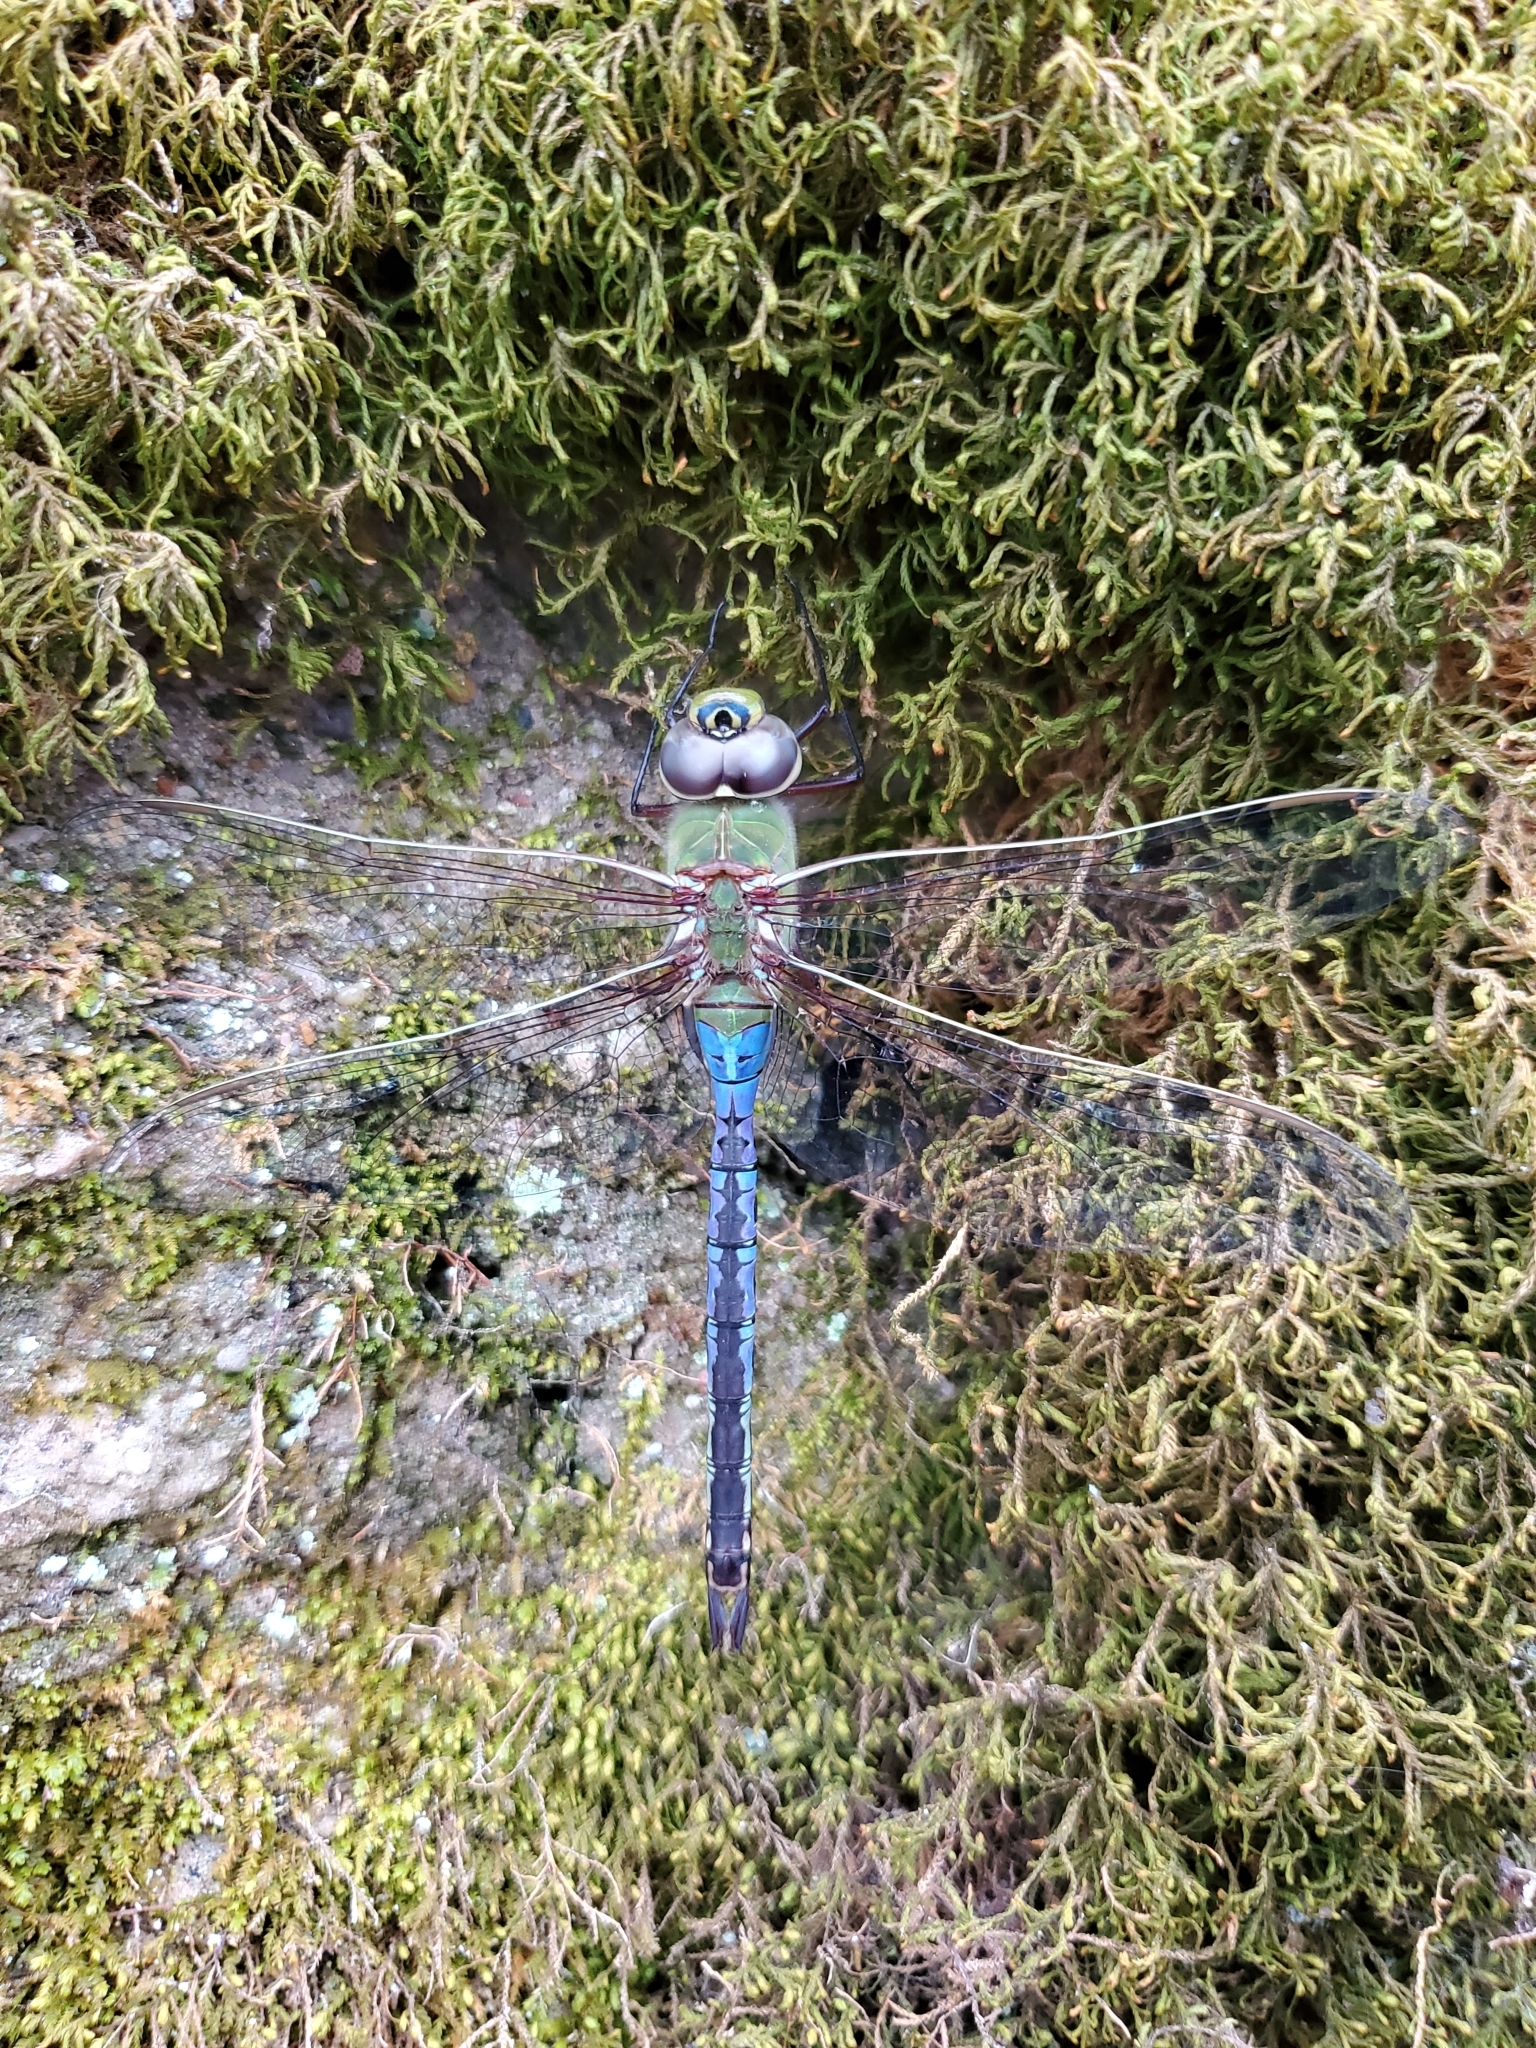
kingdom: Animalia
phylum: Arthropoda
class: Insecta
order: Odonata
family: Aeshnidae
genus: Anax
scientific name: Anax junius
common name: Common green darner
